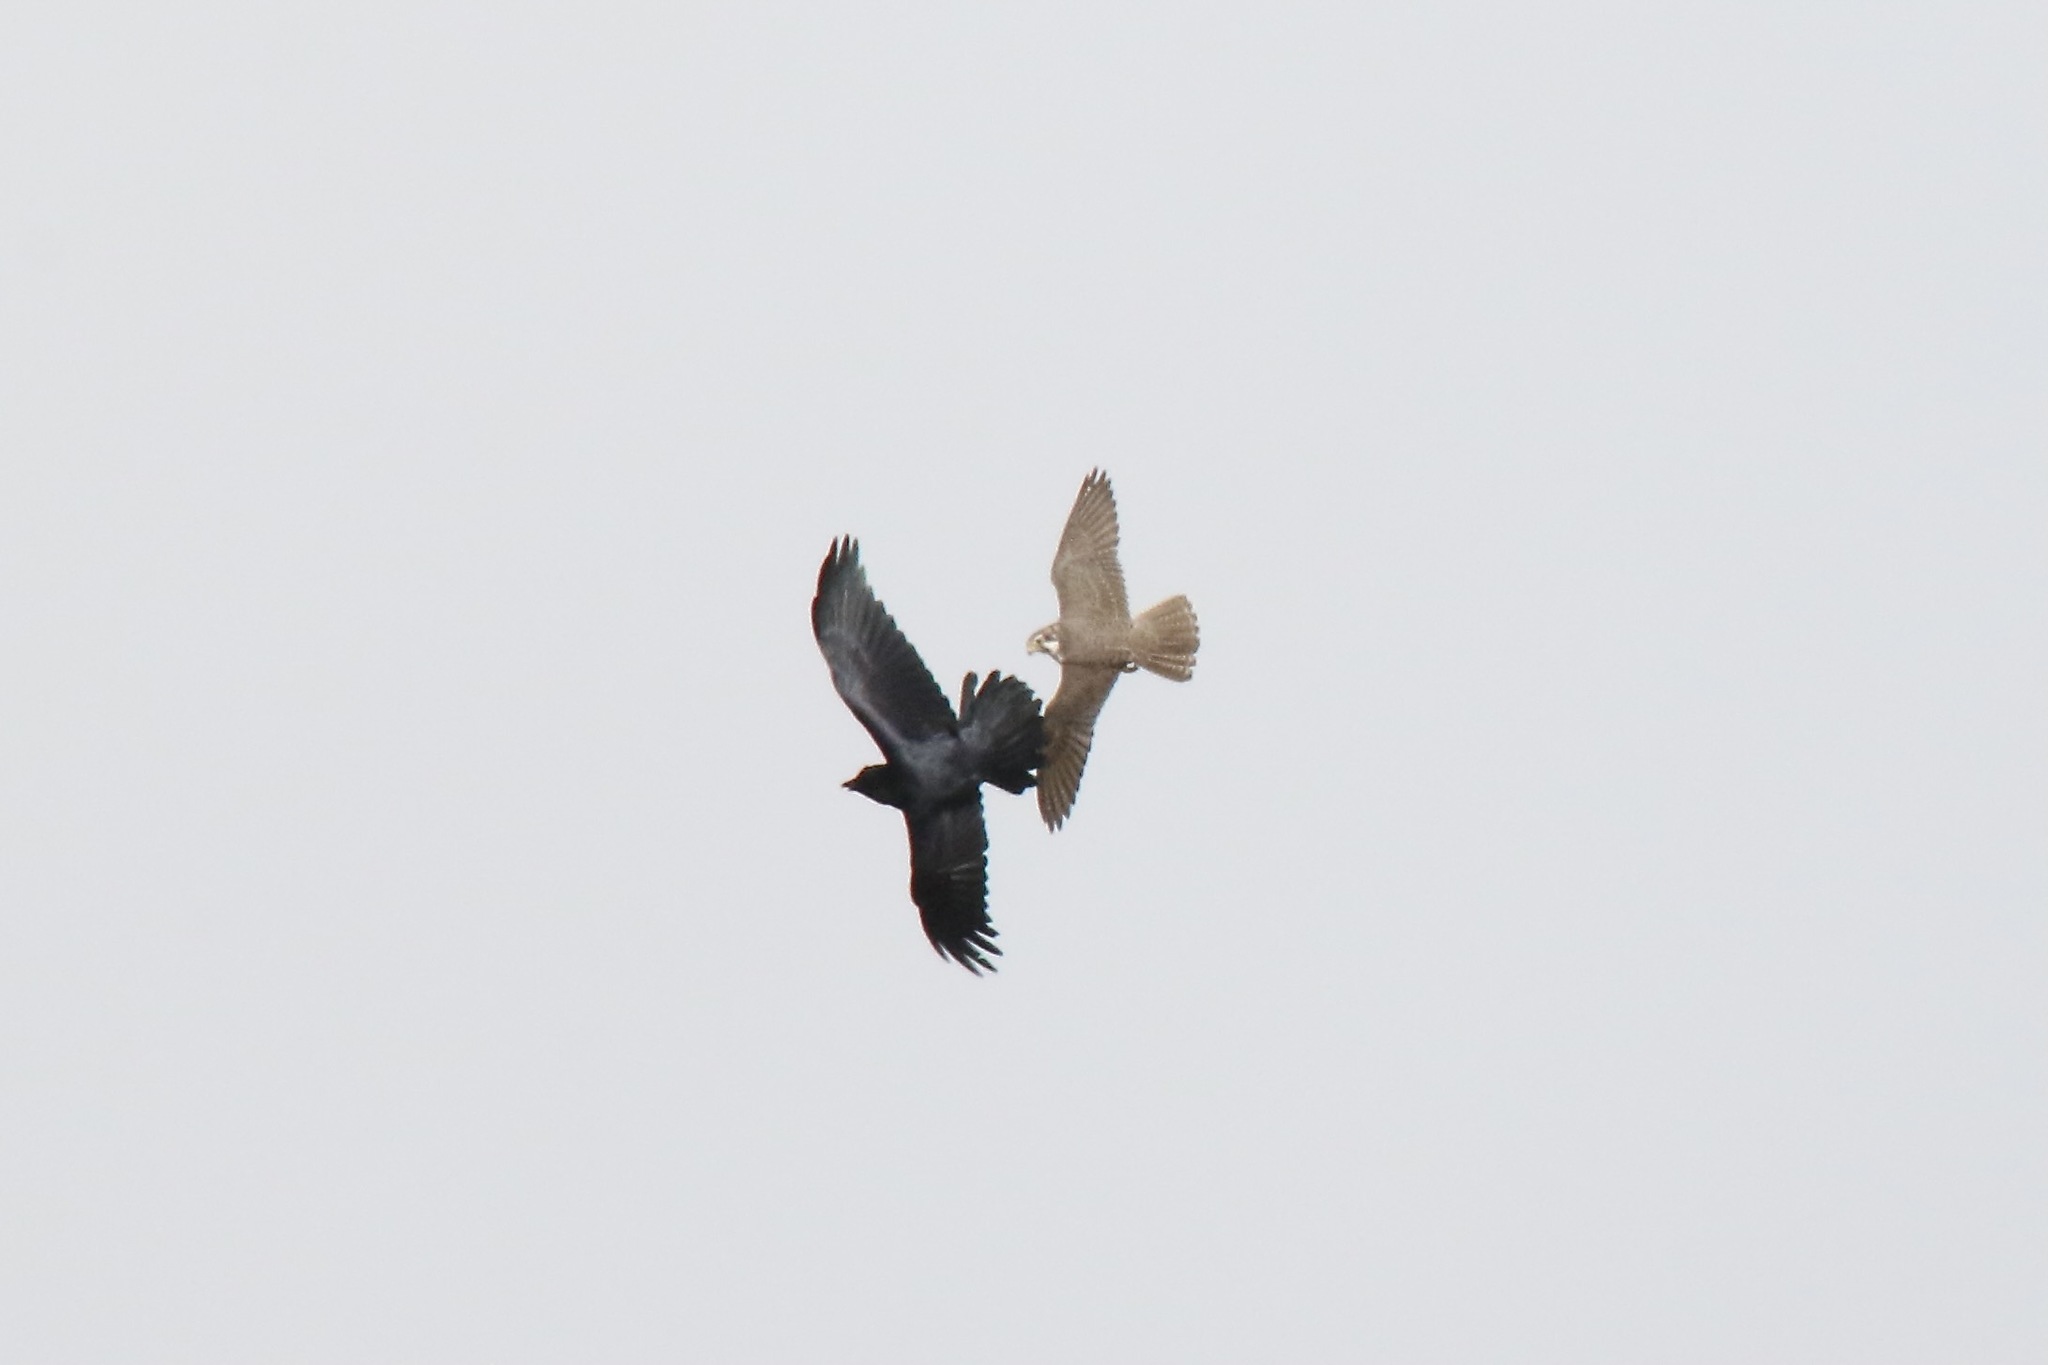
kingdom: Animalia
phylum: Chordata
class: Aves
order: Falconiformes
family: Falconidae
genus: Falco
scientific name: Falco mexicanus
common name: Prairie falcon
